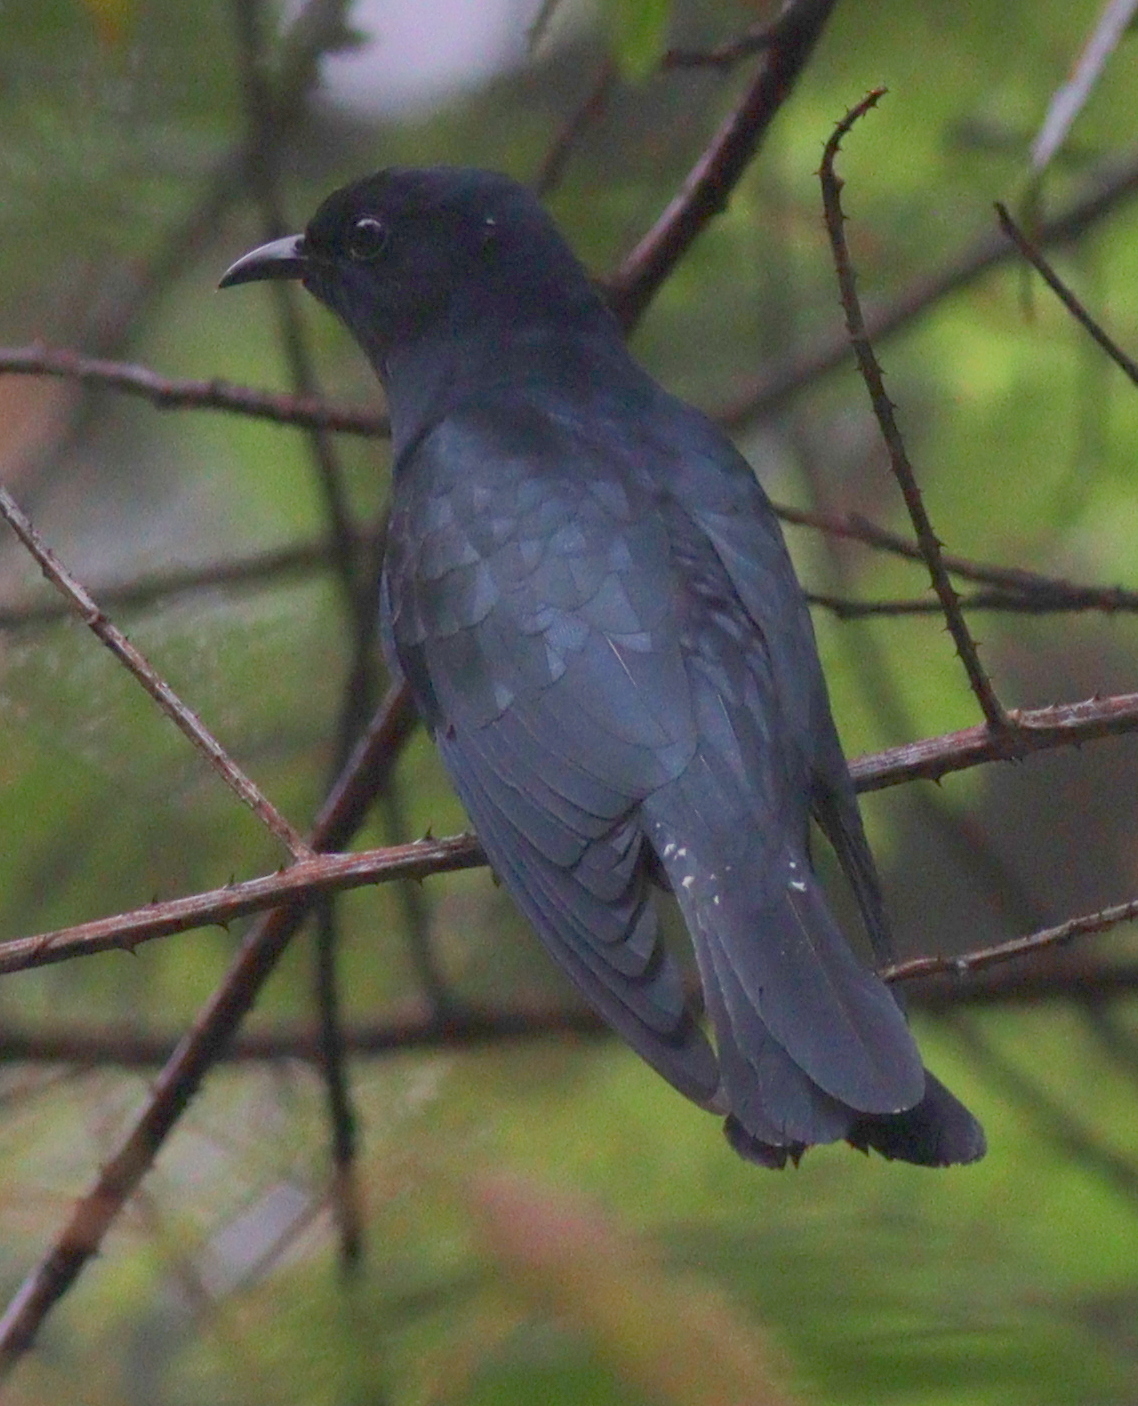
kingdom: Animalia
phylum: Chordata
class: Aves
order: Cuculiformes
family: Cuculidae
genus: Surniculus
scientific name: Surniculus lugubris
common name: Square-tailed drongo-cuckoo
